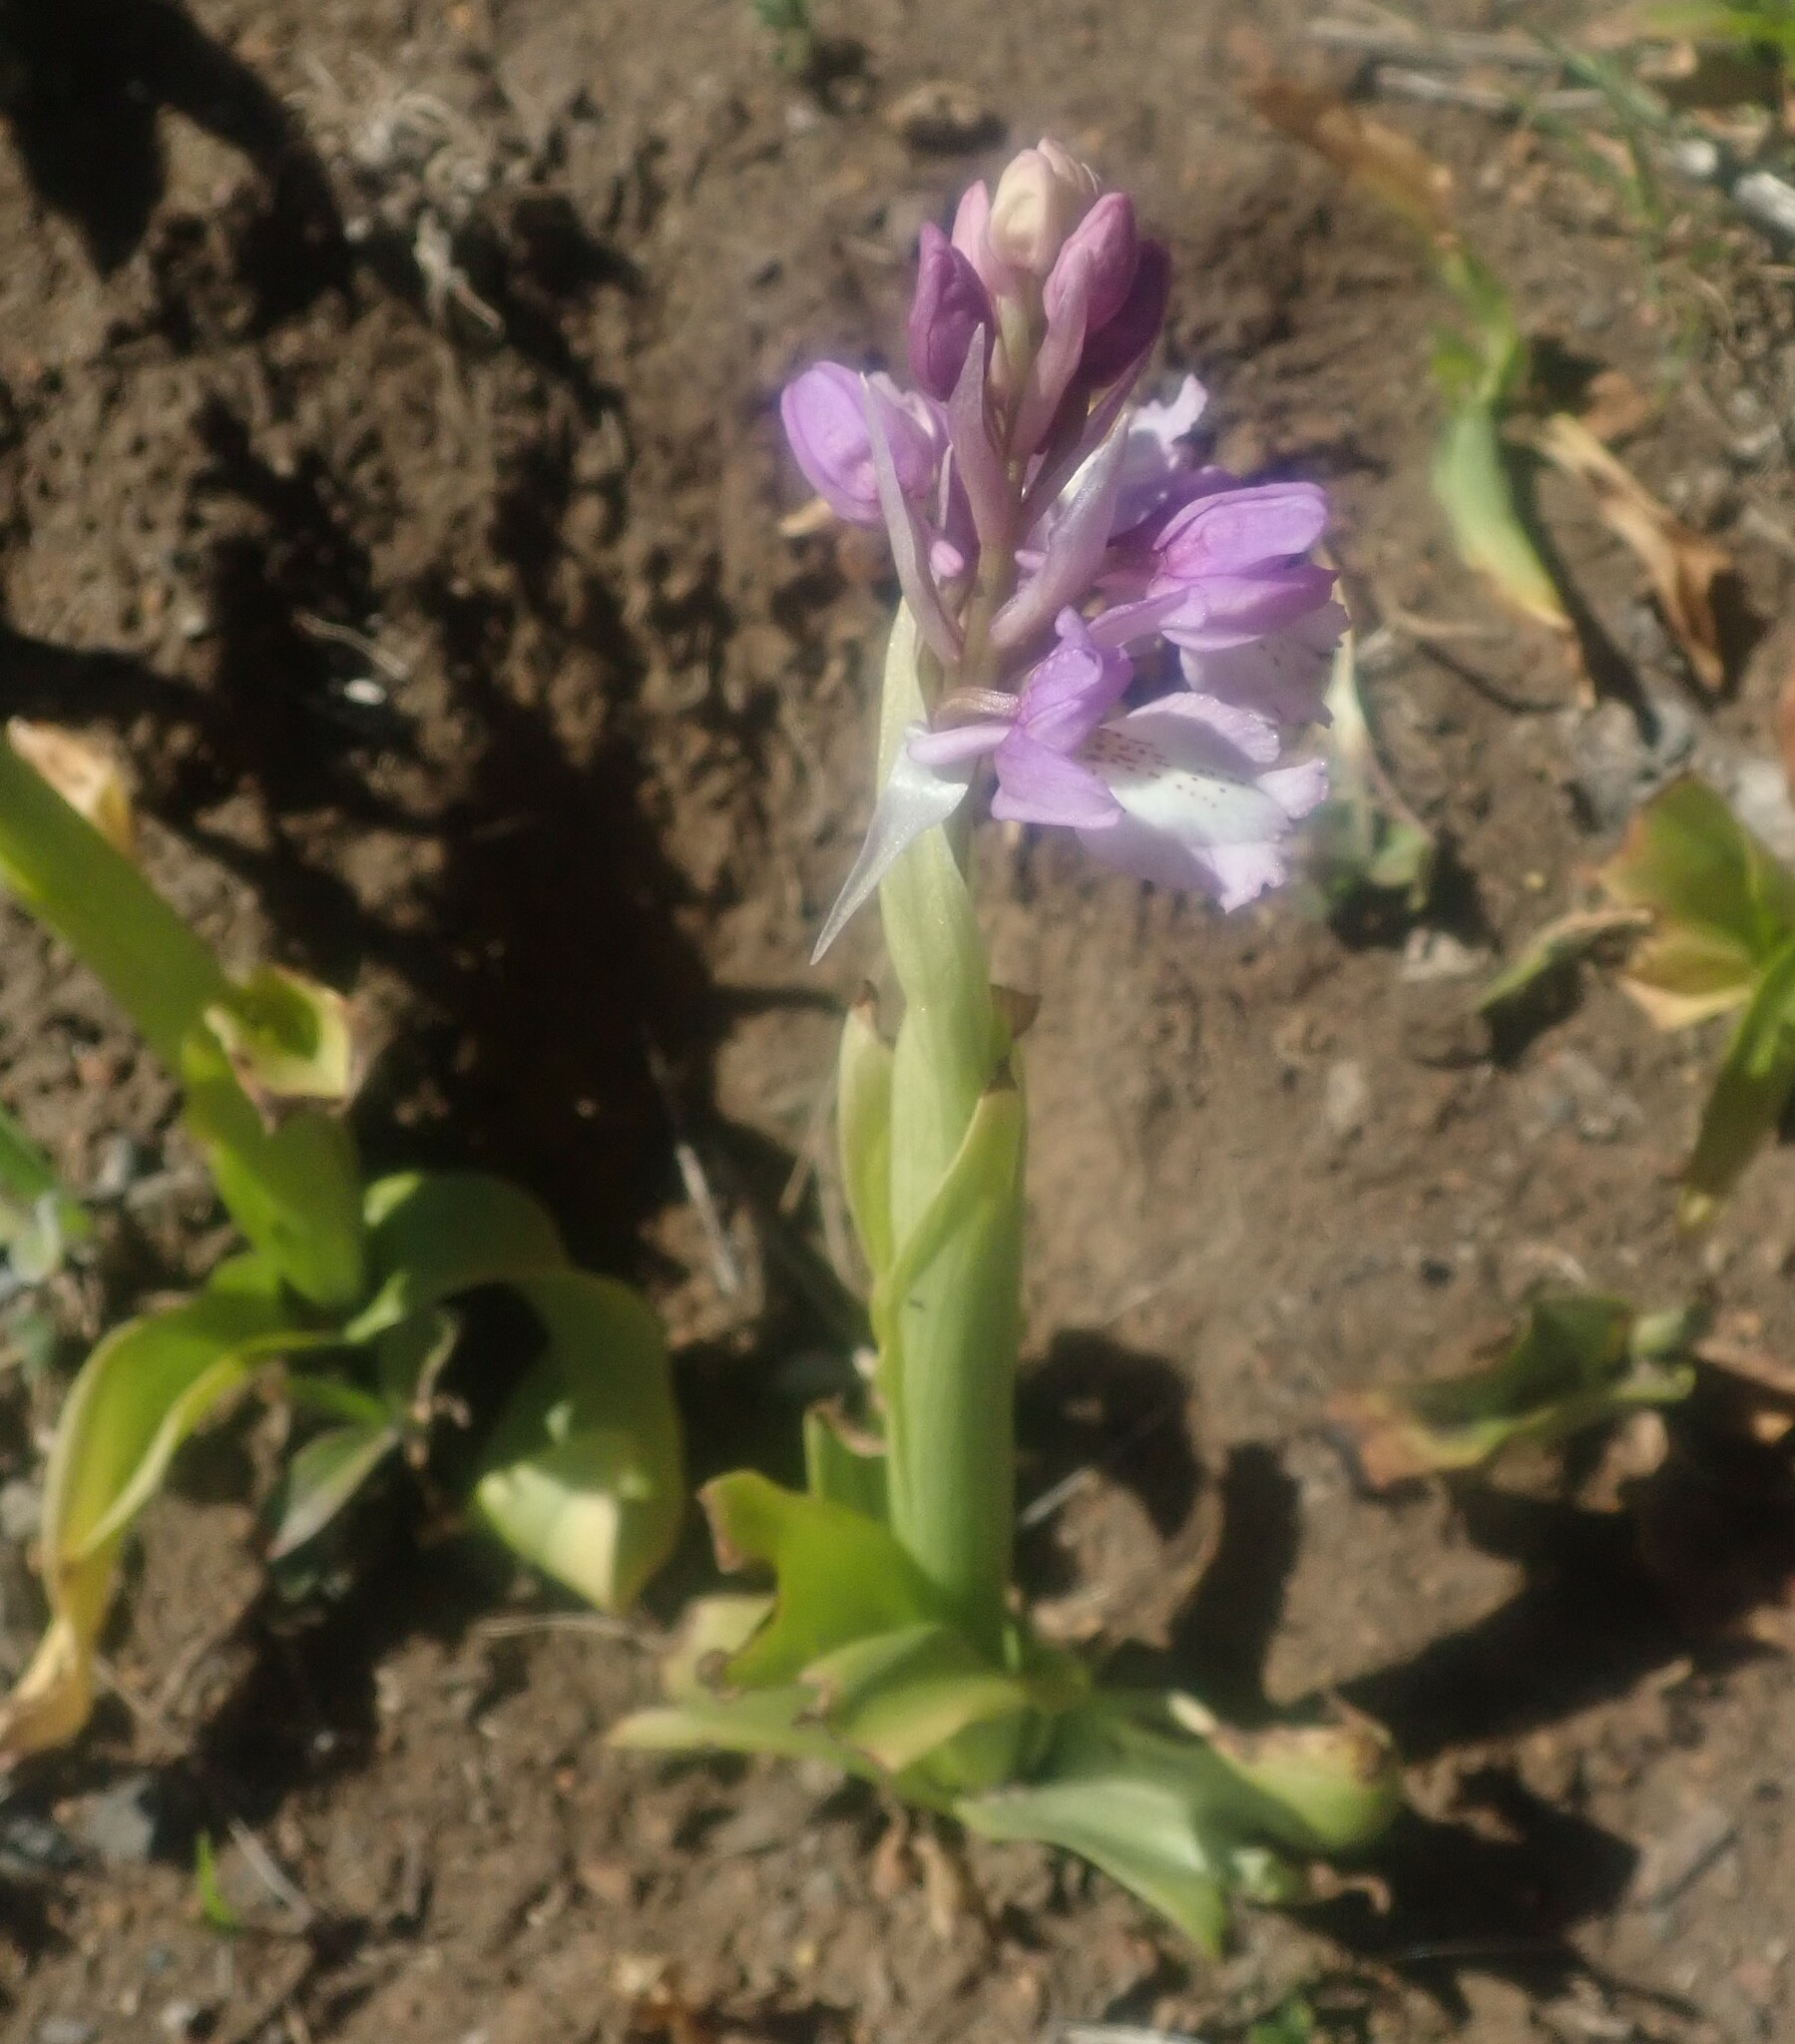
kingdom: Plantae
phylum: Tracheophyta
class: Liliopsida
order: Asparagales
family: Orchidaceae
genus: Orchis
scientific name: Orchis mascula
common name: Early-purple orchid
